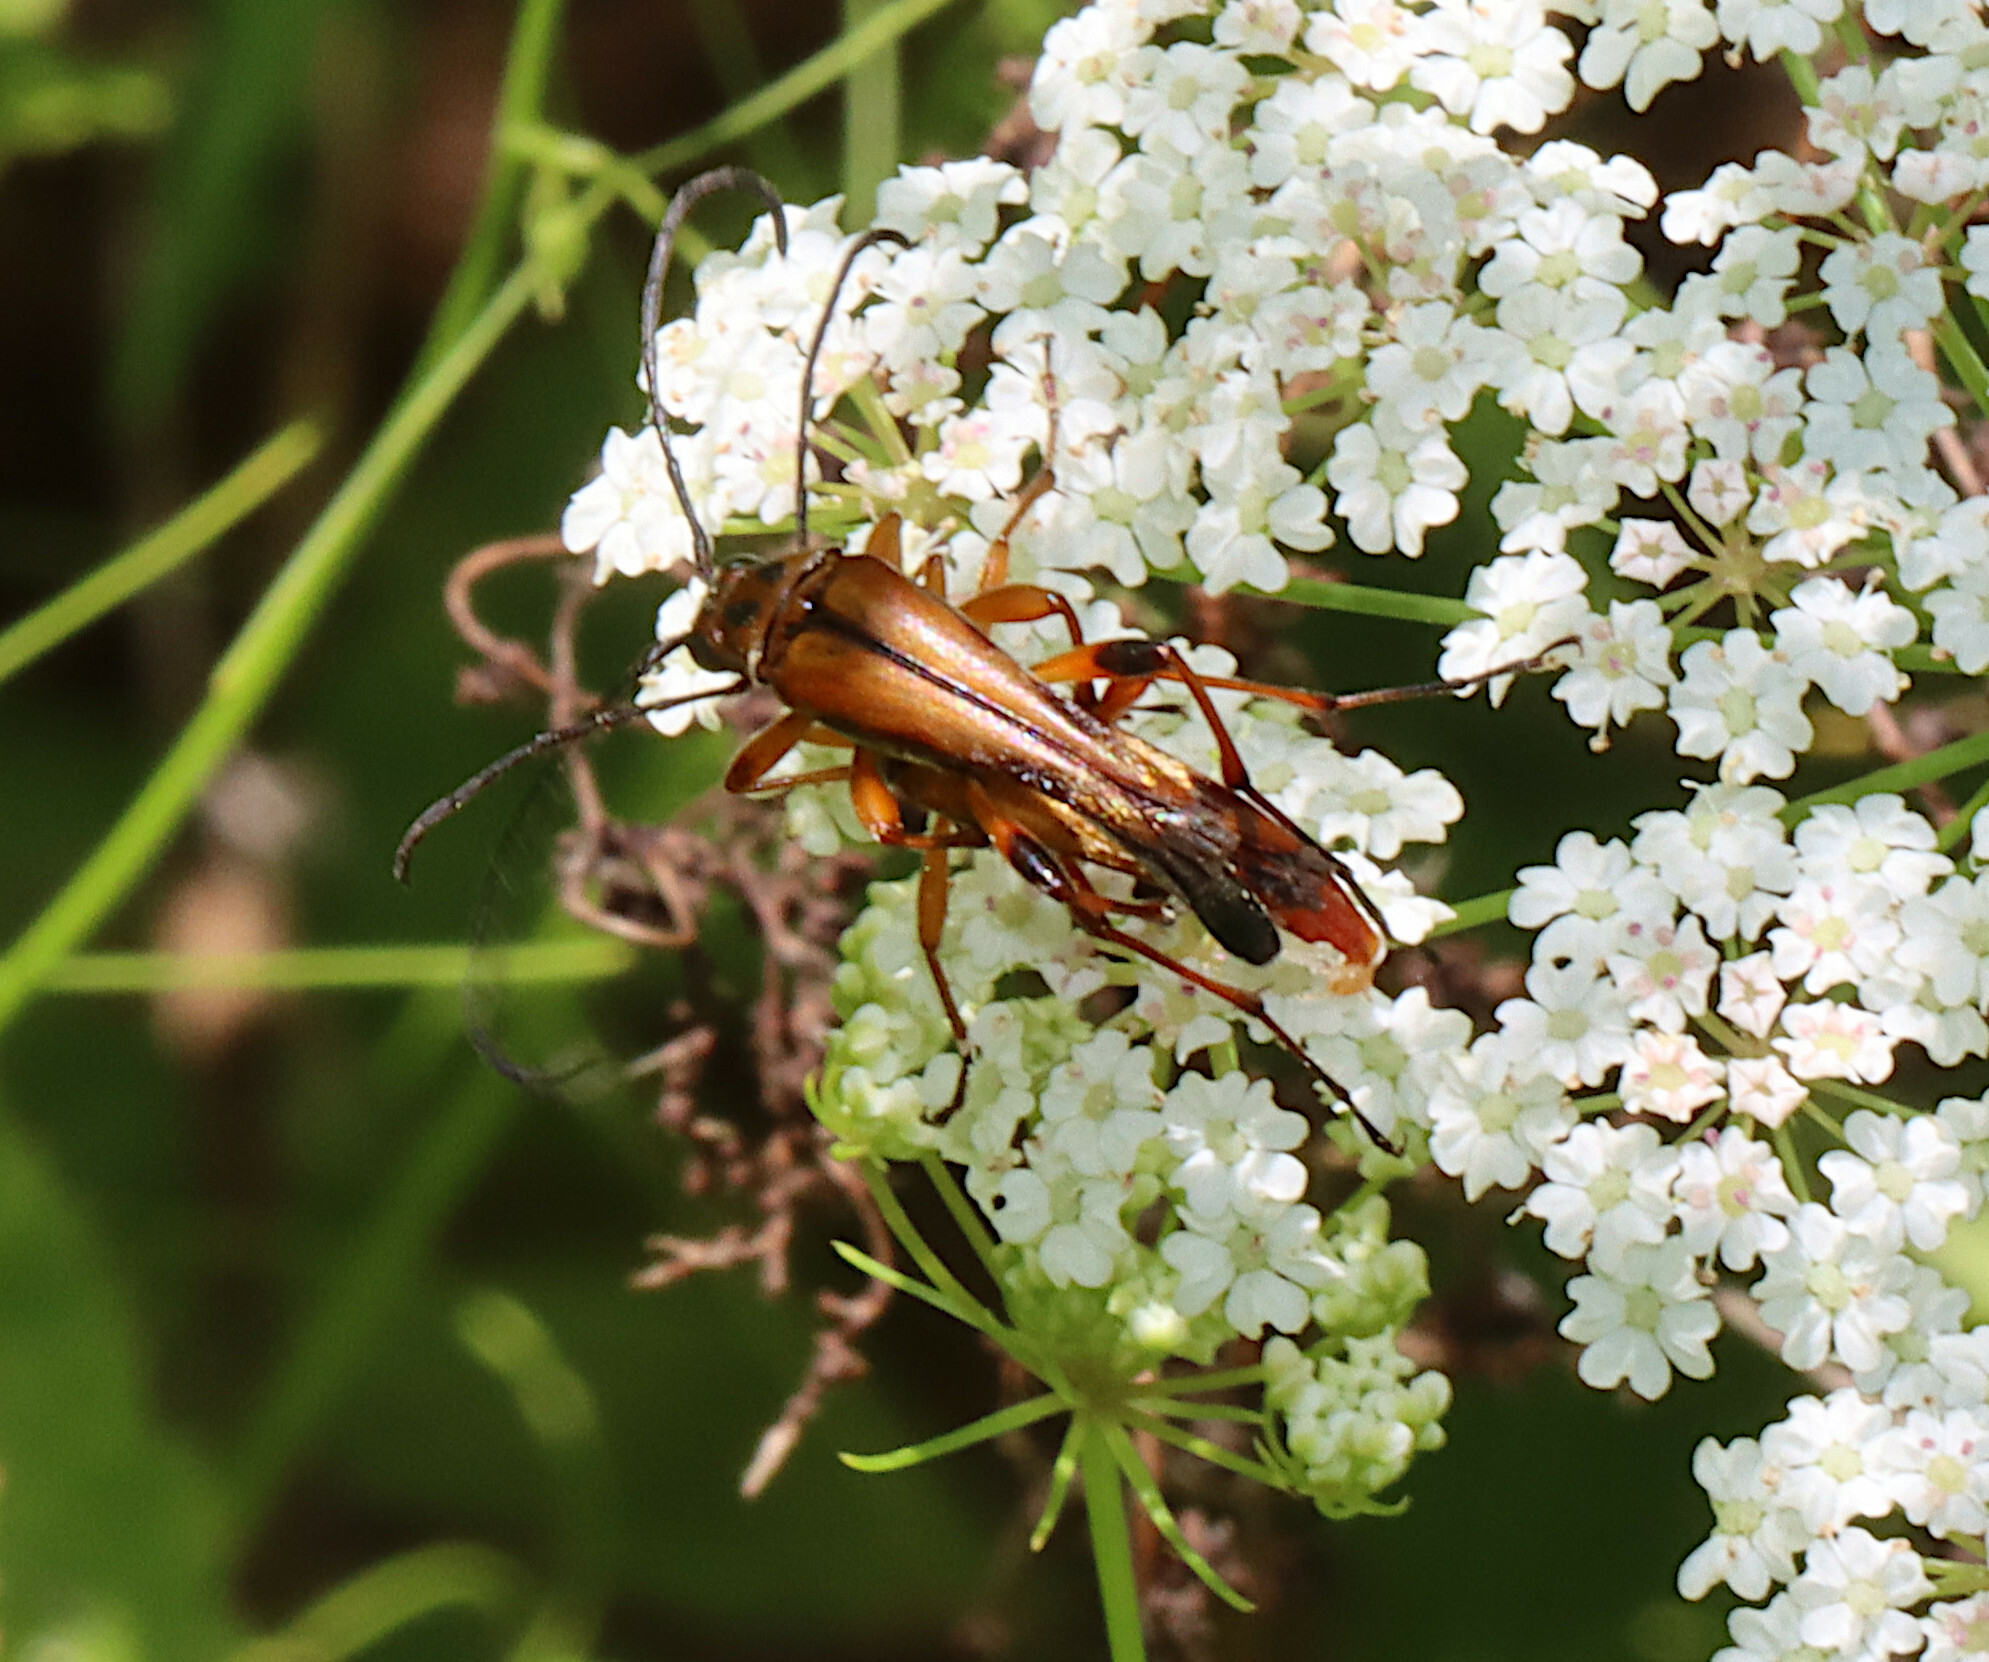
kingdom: Animalia
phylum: Arthropoda
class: Insecta
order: Coleoptera
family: Cerambycidae
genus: Strangalia
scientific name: Strangalia famelica
